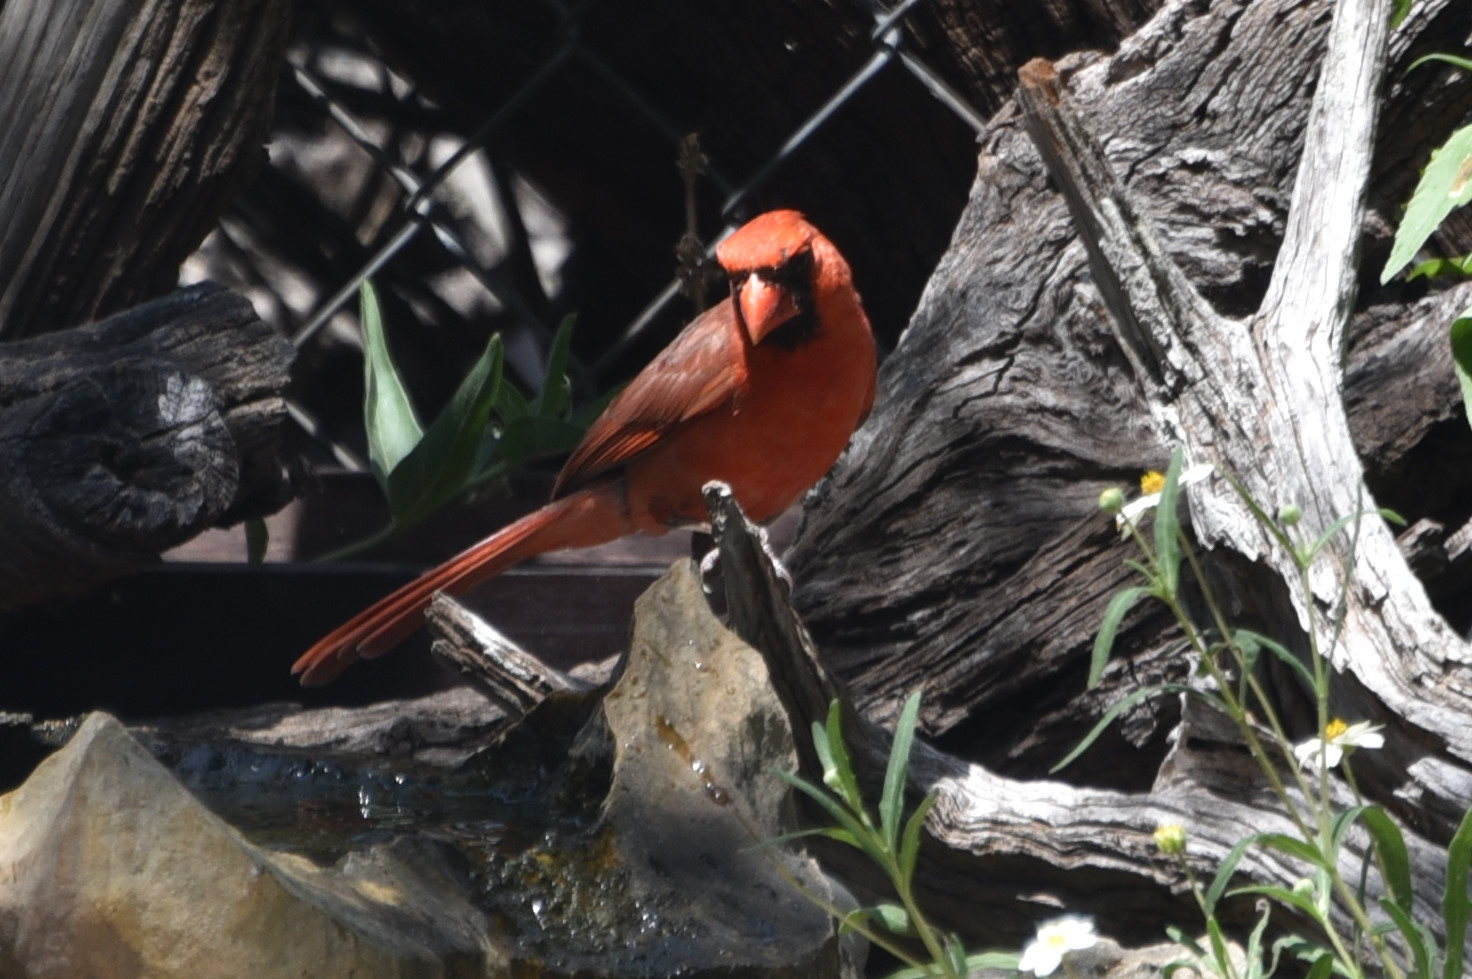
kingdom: Animalia
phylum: Chordata
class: Aves
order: Passeriformes
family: Cardinalidae
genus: Cardinalis
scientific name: Cardinalis cardinalis
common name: Northern cardinal
